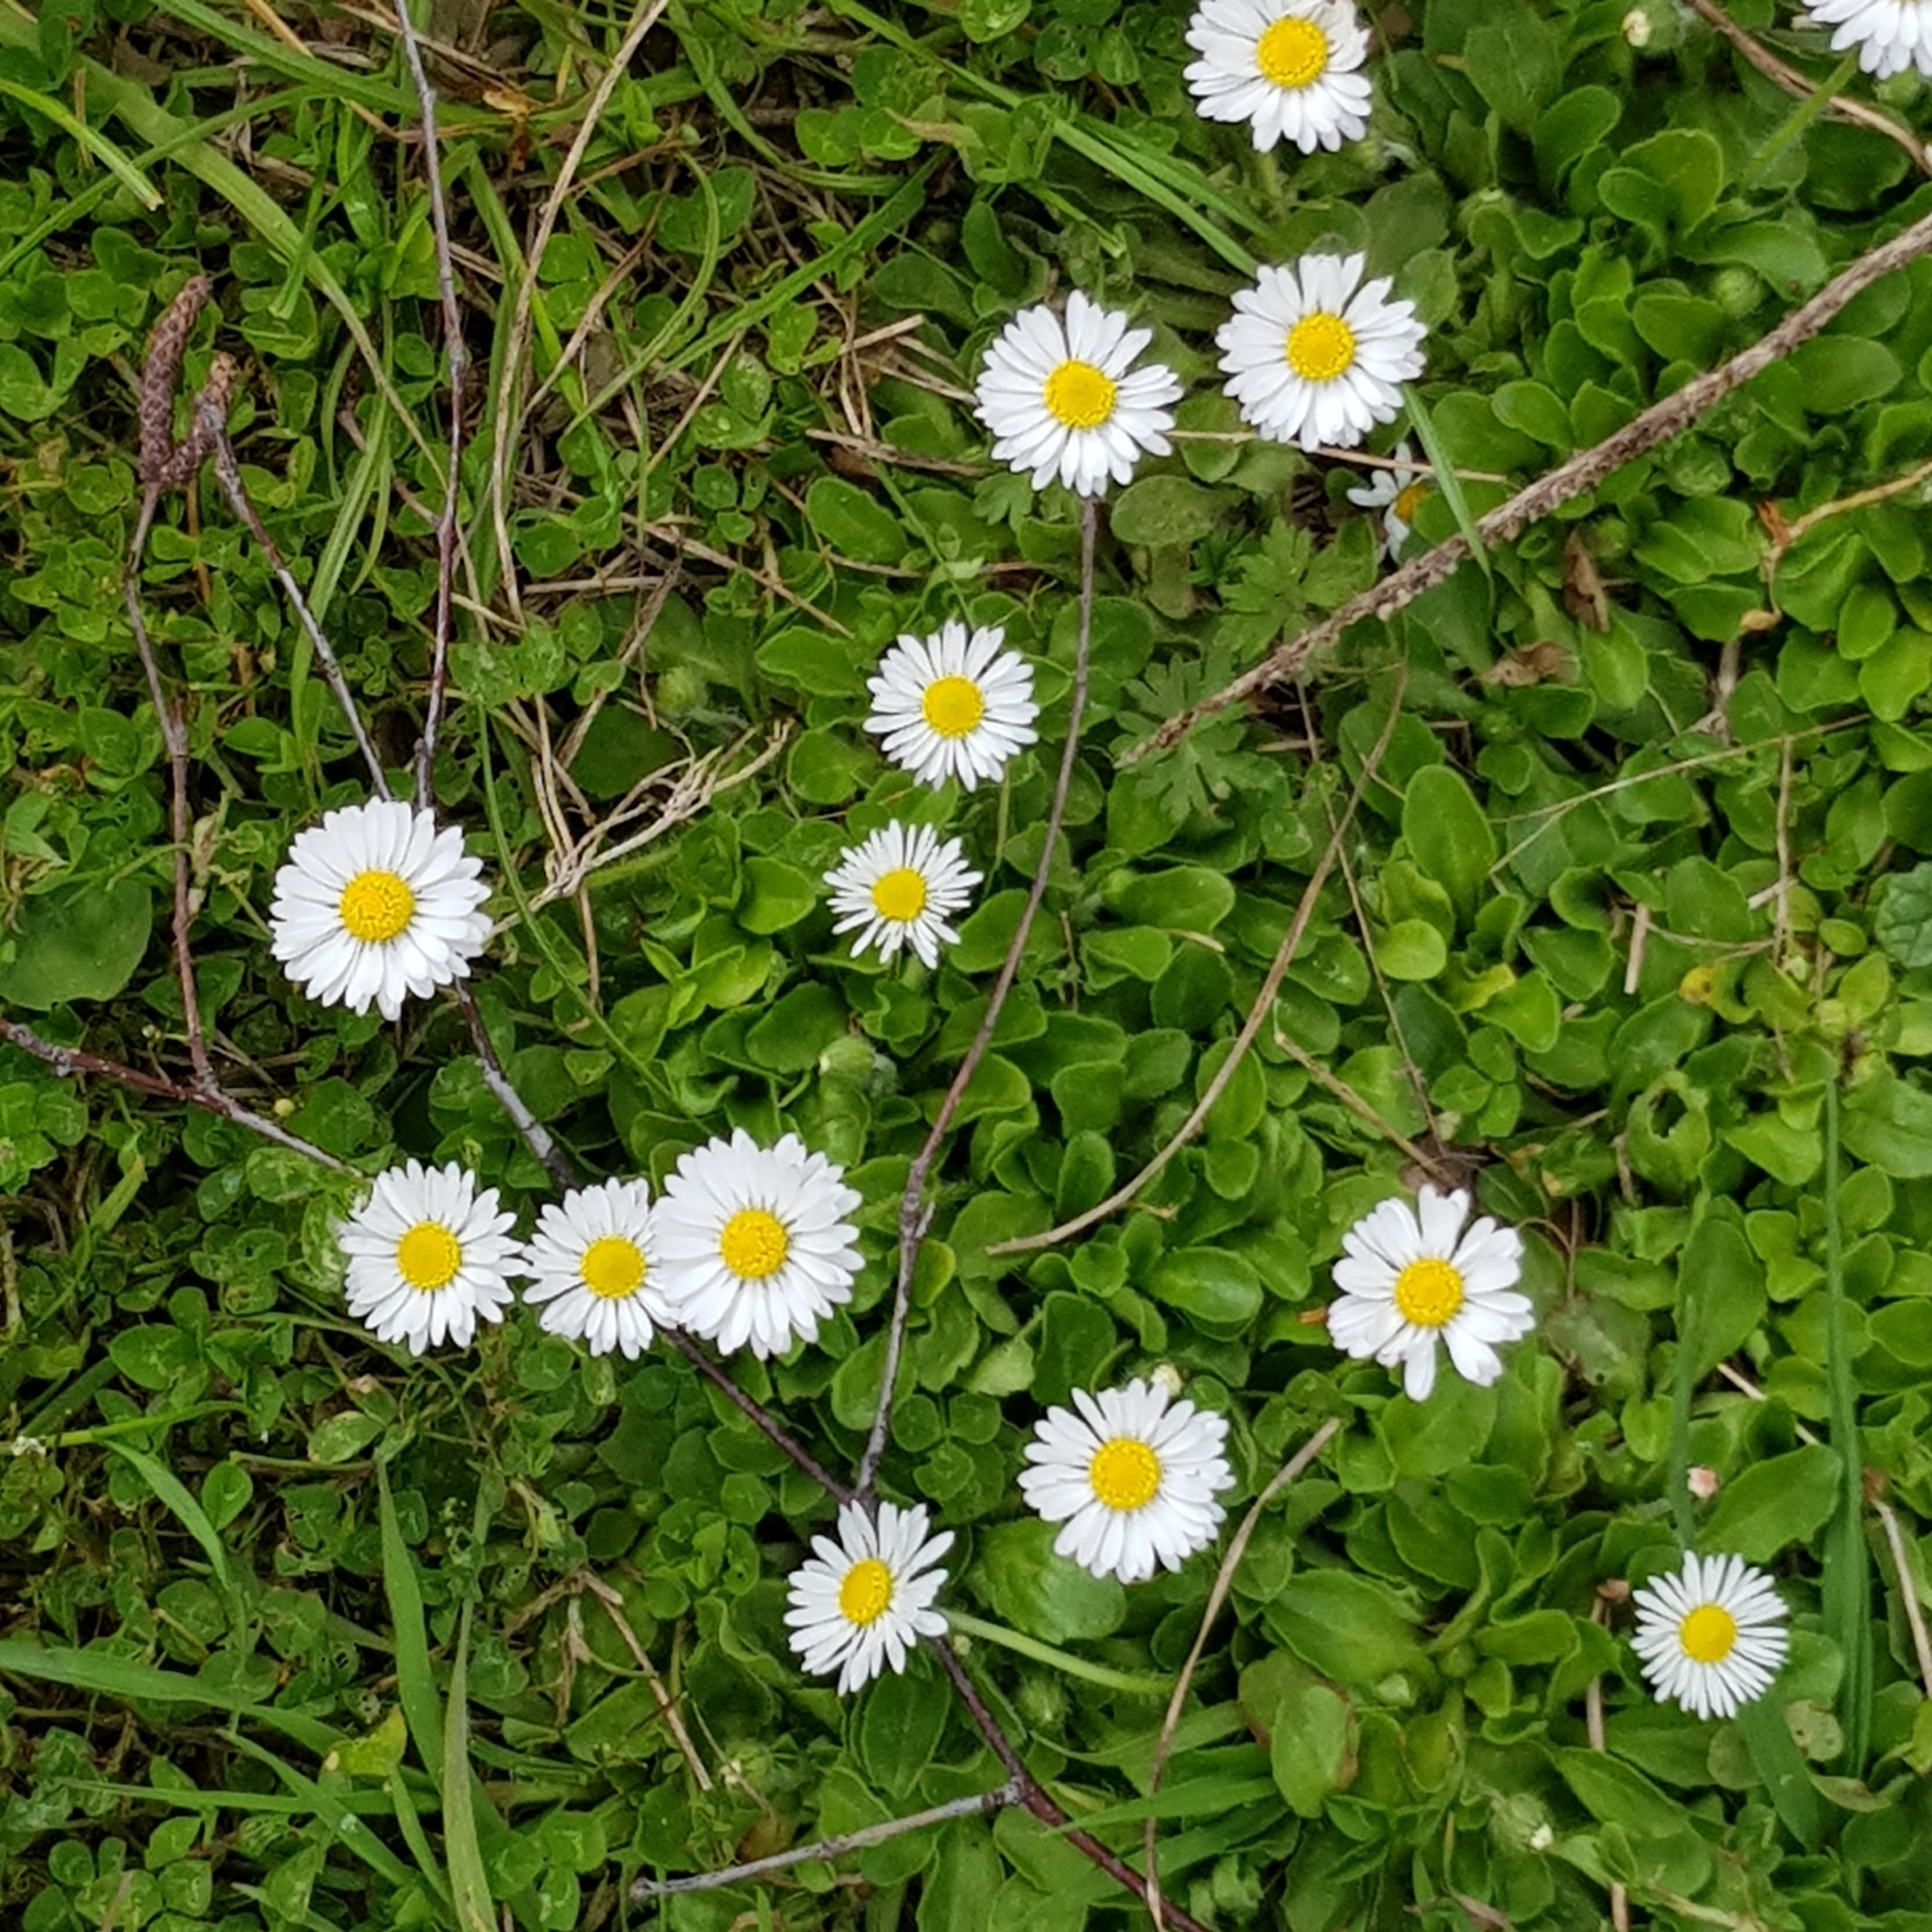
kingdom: Plantae
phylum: Tracheophyta
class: Magnoliopsida
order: Asterales
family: Asteraceae
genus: Bellis
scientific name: Bellis perennis
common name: Lawndaisy
